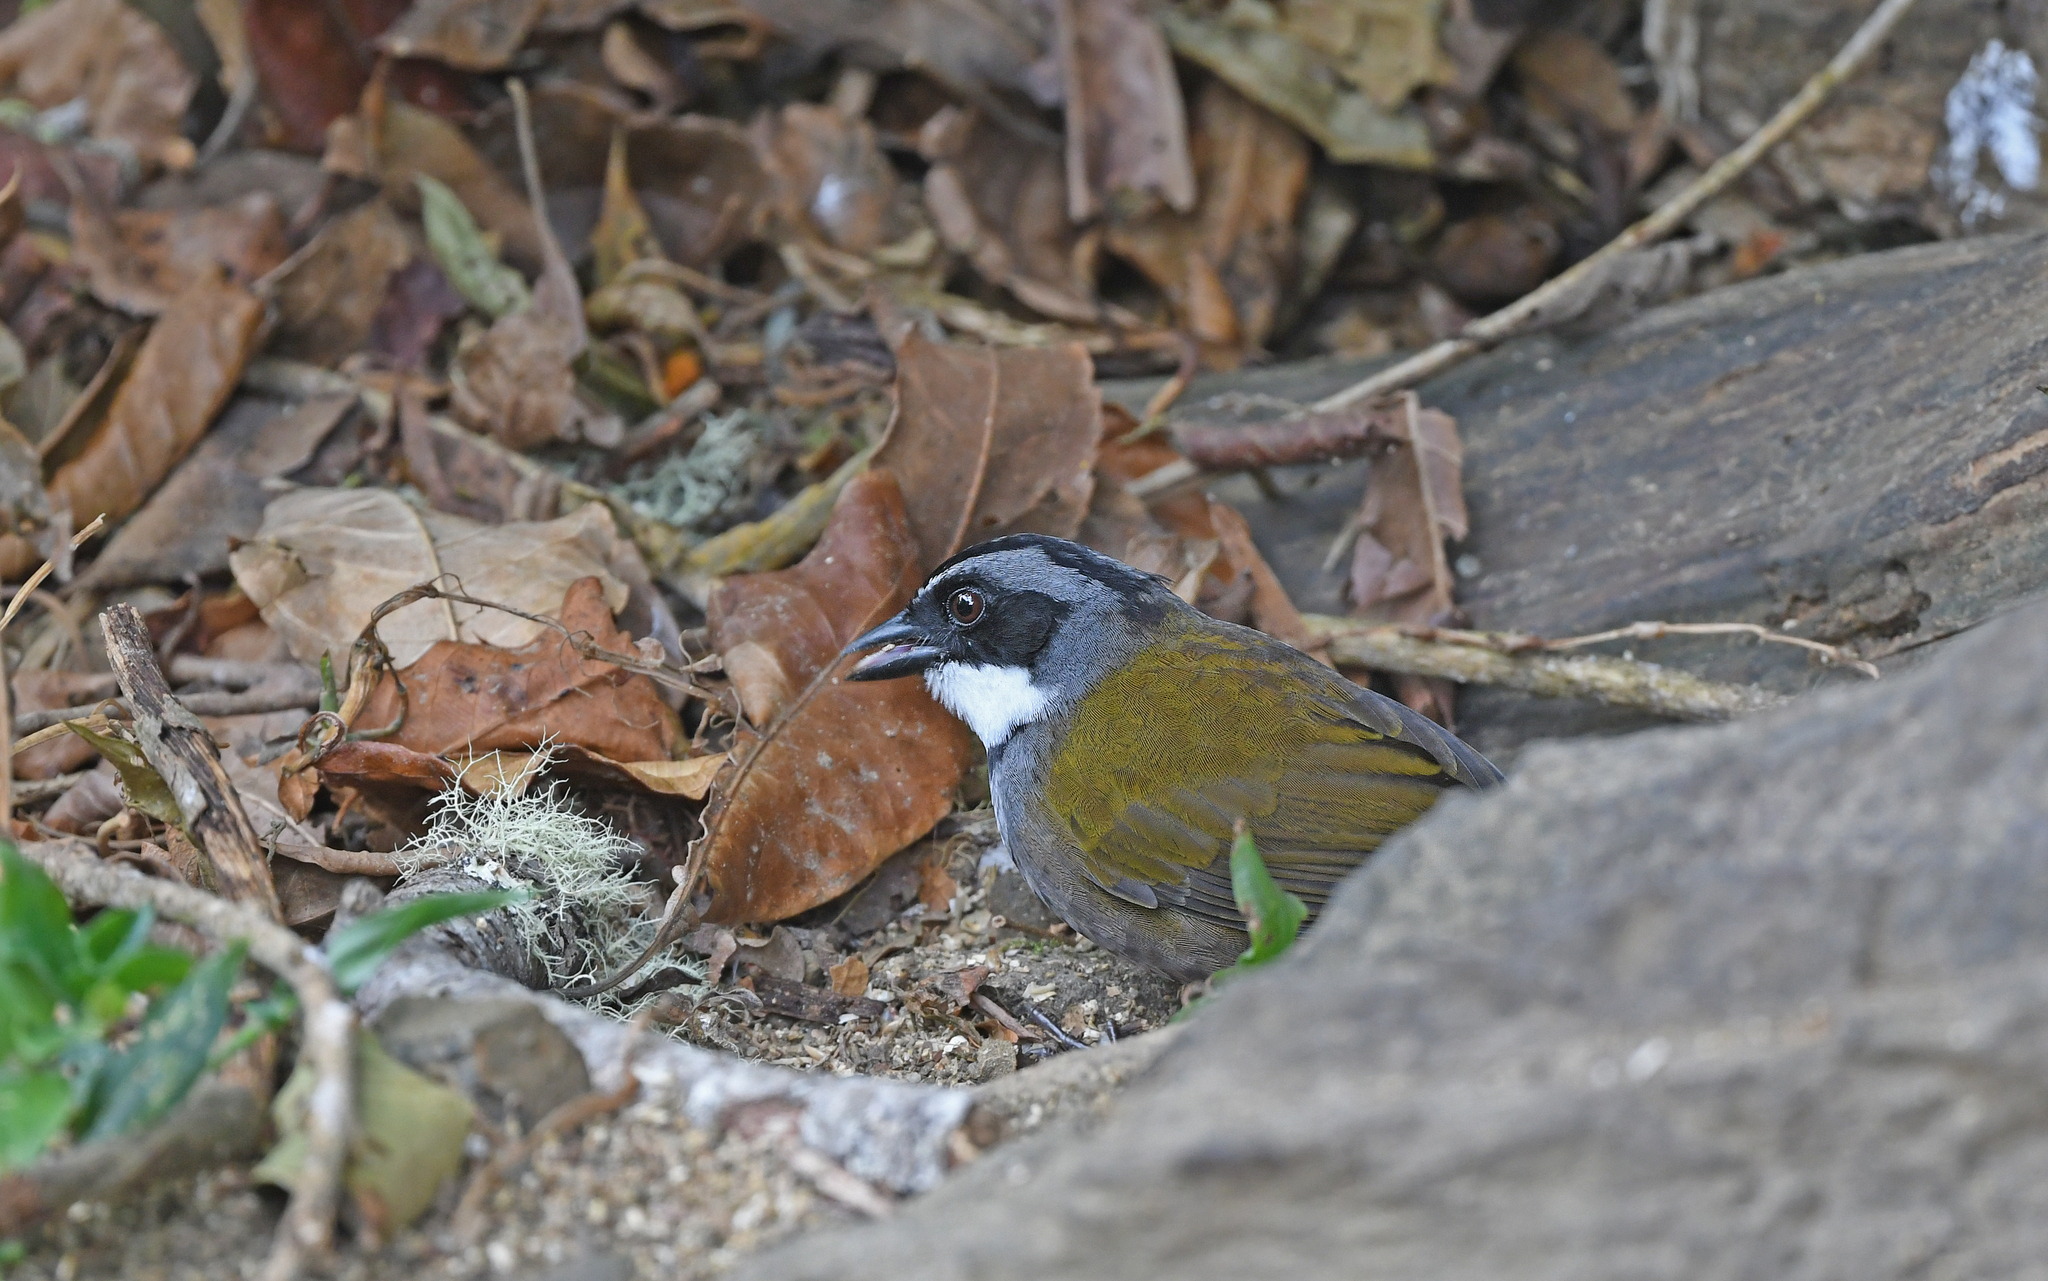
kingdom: Animalia
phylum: Chordata
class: Aves
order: Passeriformes
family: Passerellidae
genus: Arremon
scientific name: Arremon basilicus
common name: Sierra nevada brushfinch
